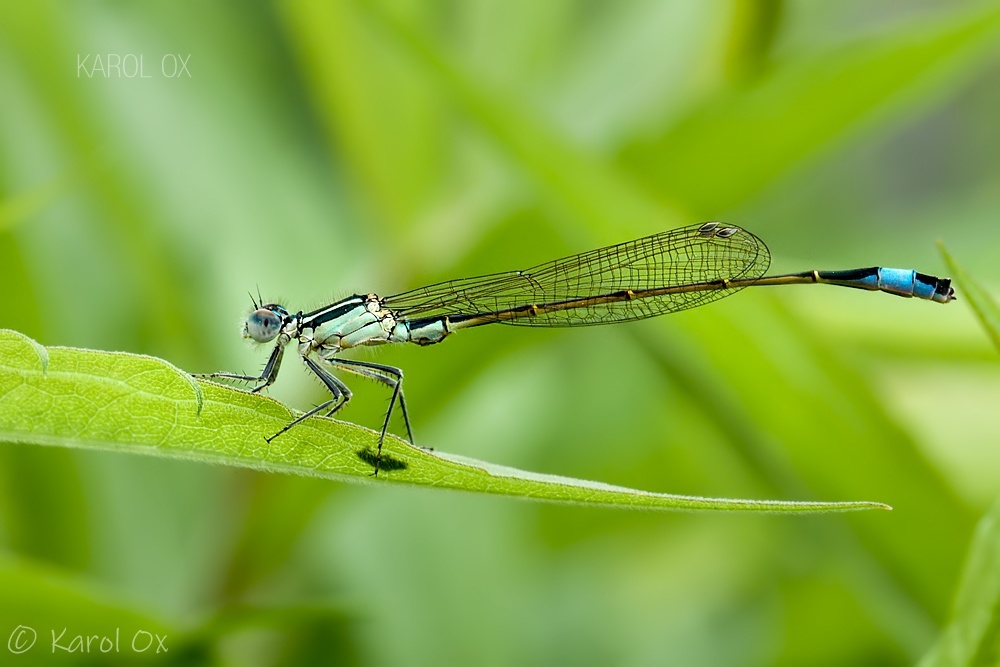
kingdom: Animalia
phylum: Arthropoda
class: Insecta
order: Odonata
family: Coenagrionidae
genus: Ischnura
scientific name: Ischnura elegans
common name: Blue-tailed damselfly
